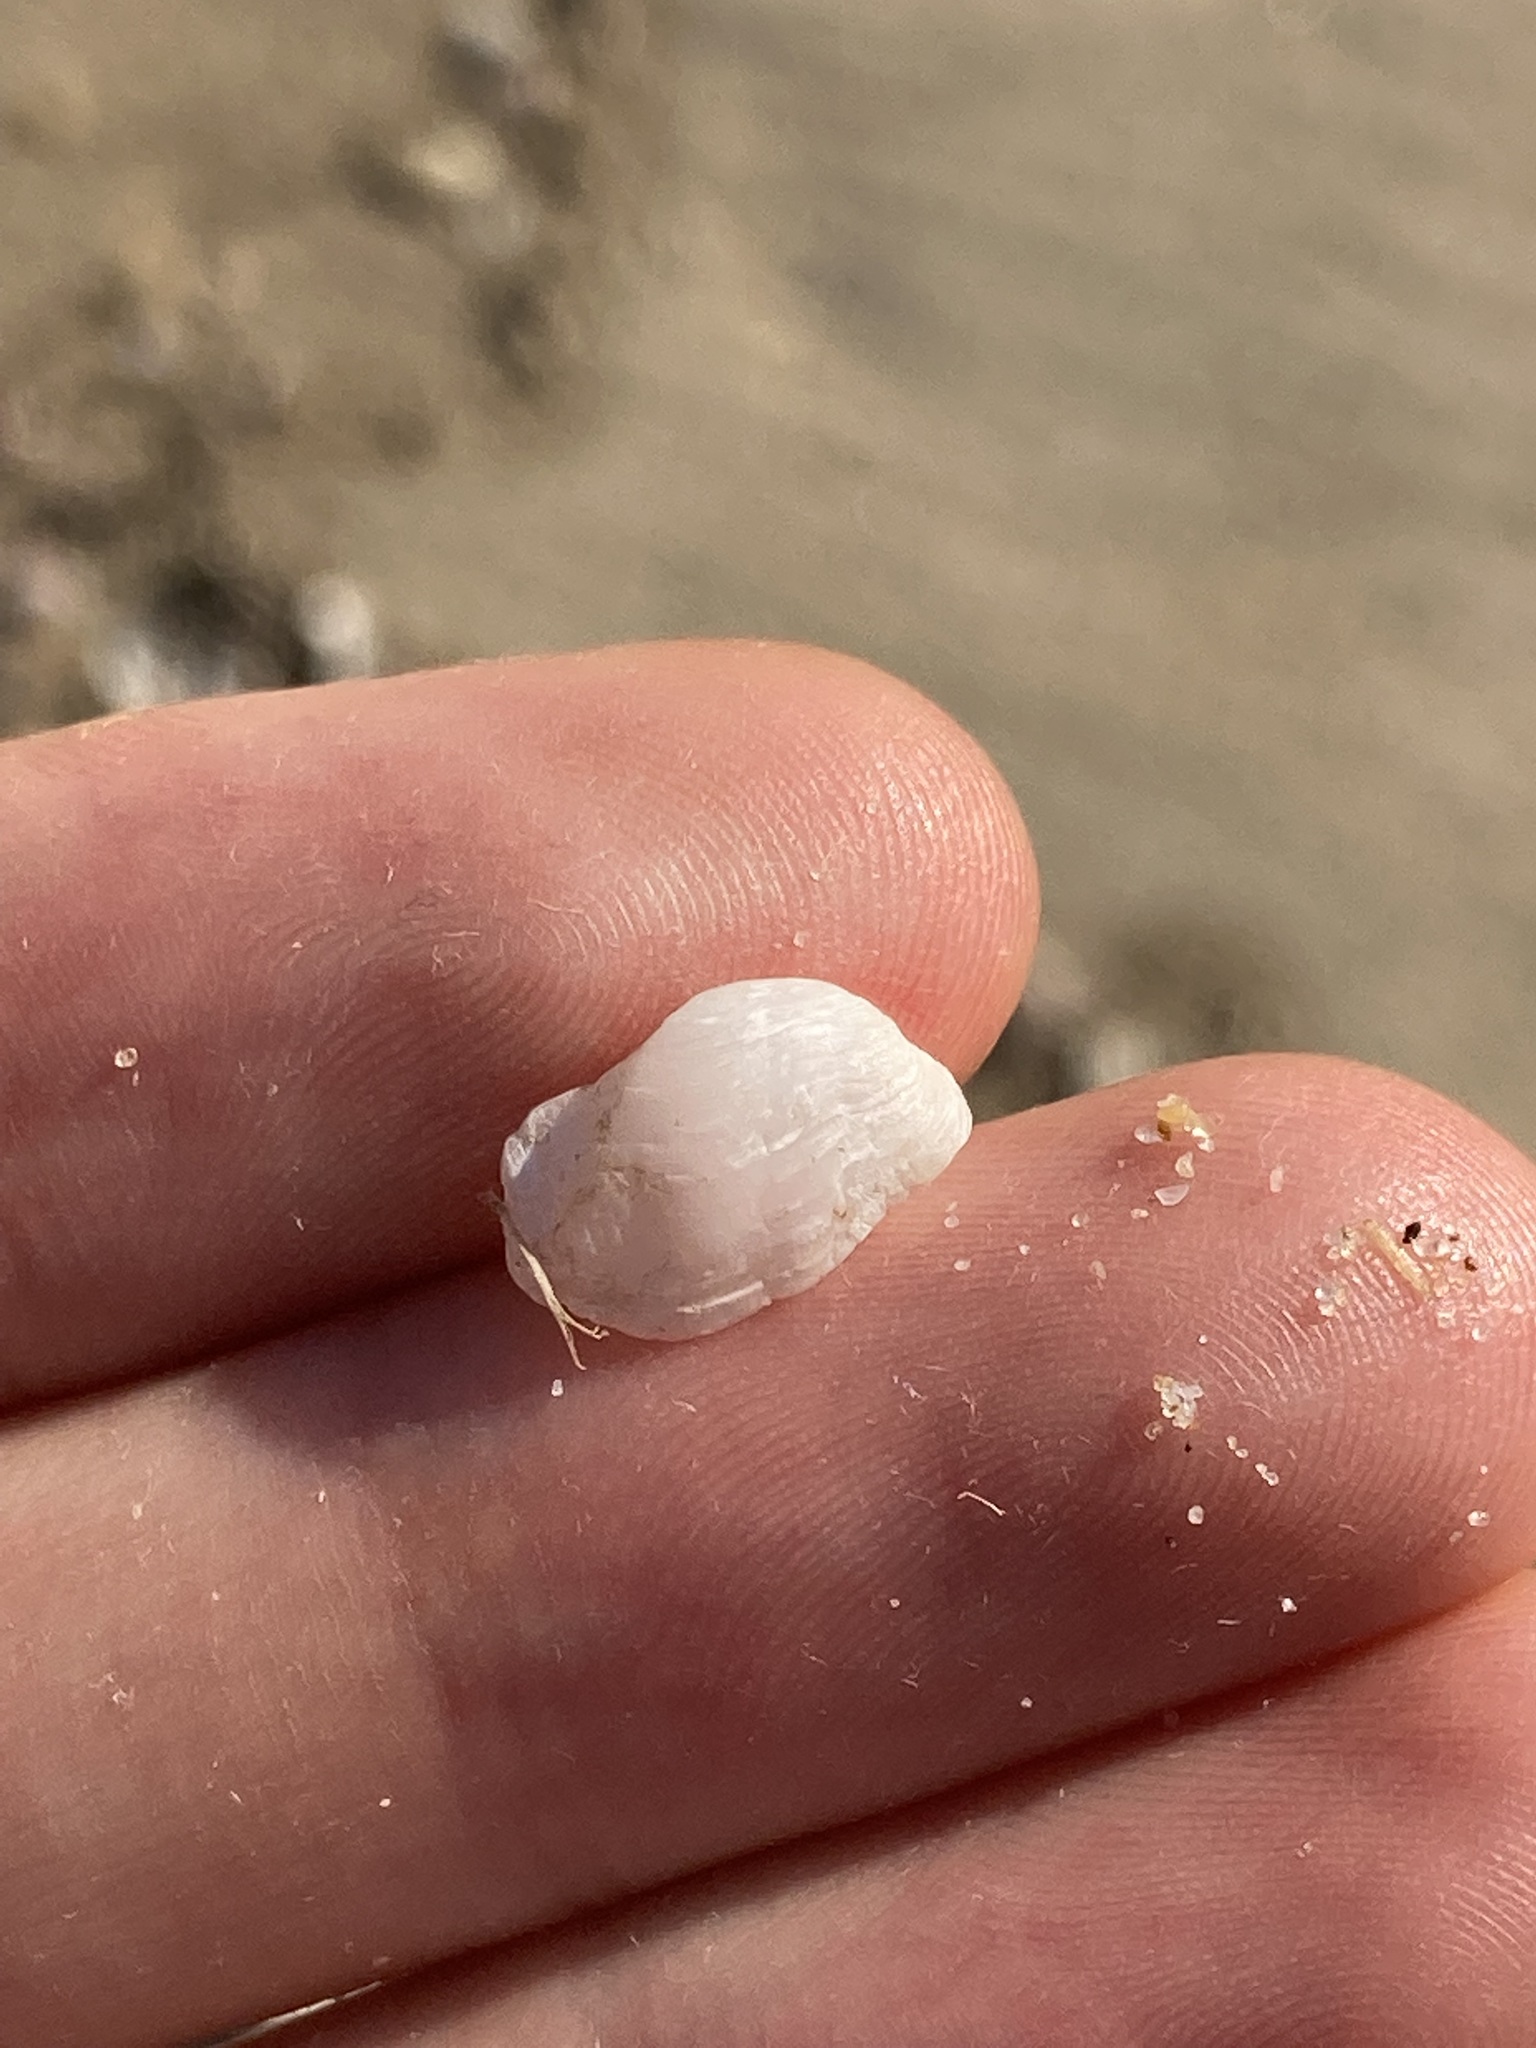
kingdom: Animalia
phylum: Mollusca
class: Bivalvia
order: Adapedonta
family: Hiatellidae
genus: Hiatella
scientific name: Hiatella australis
